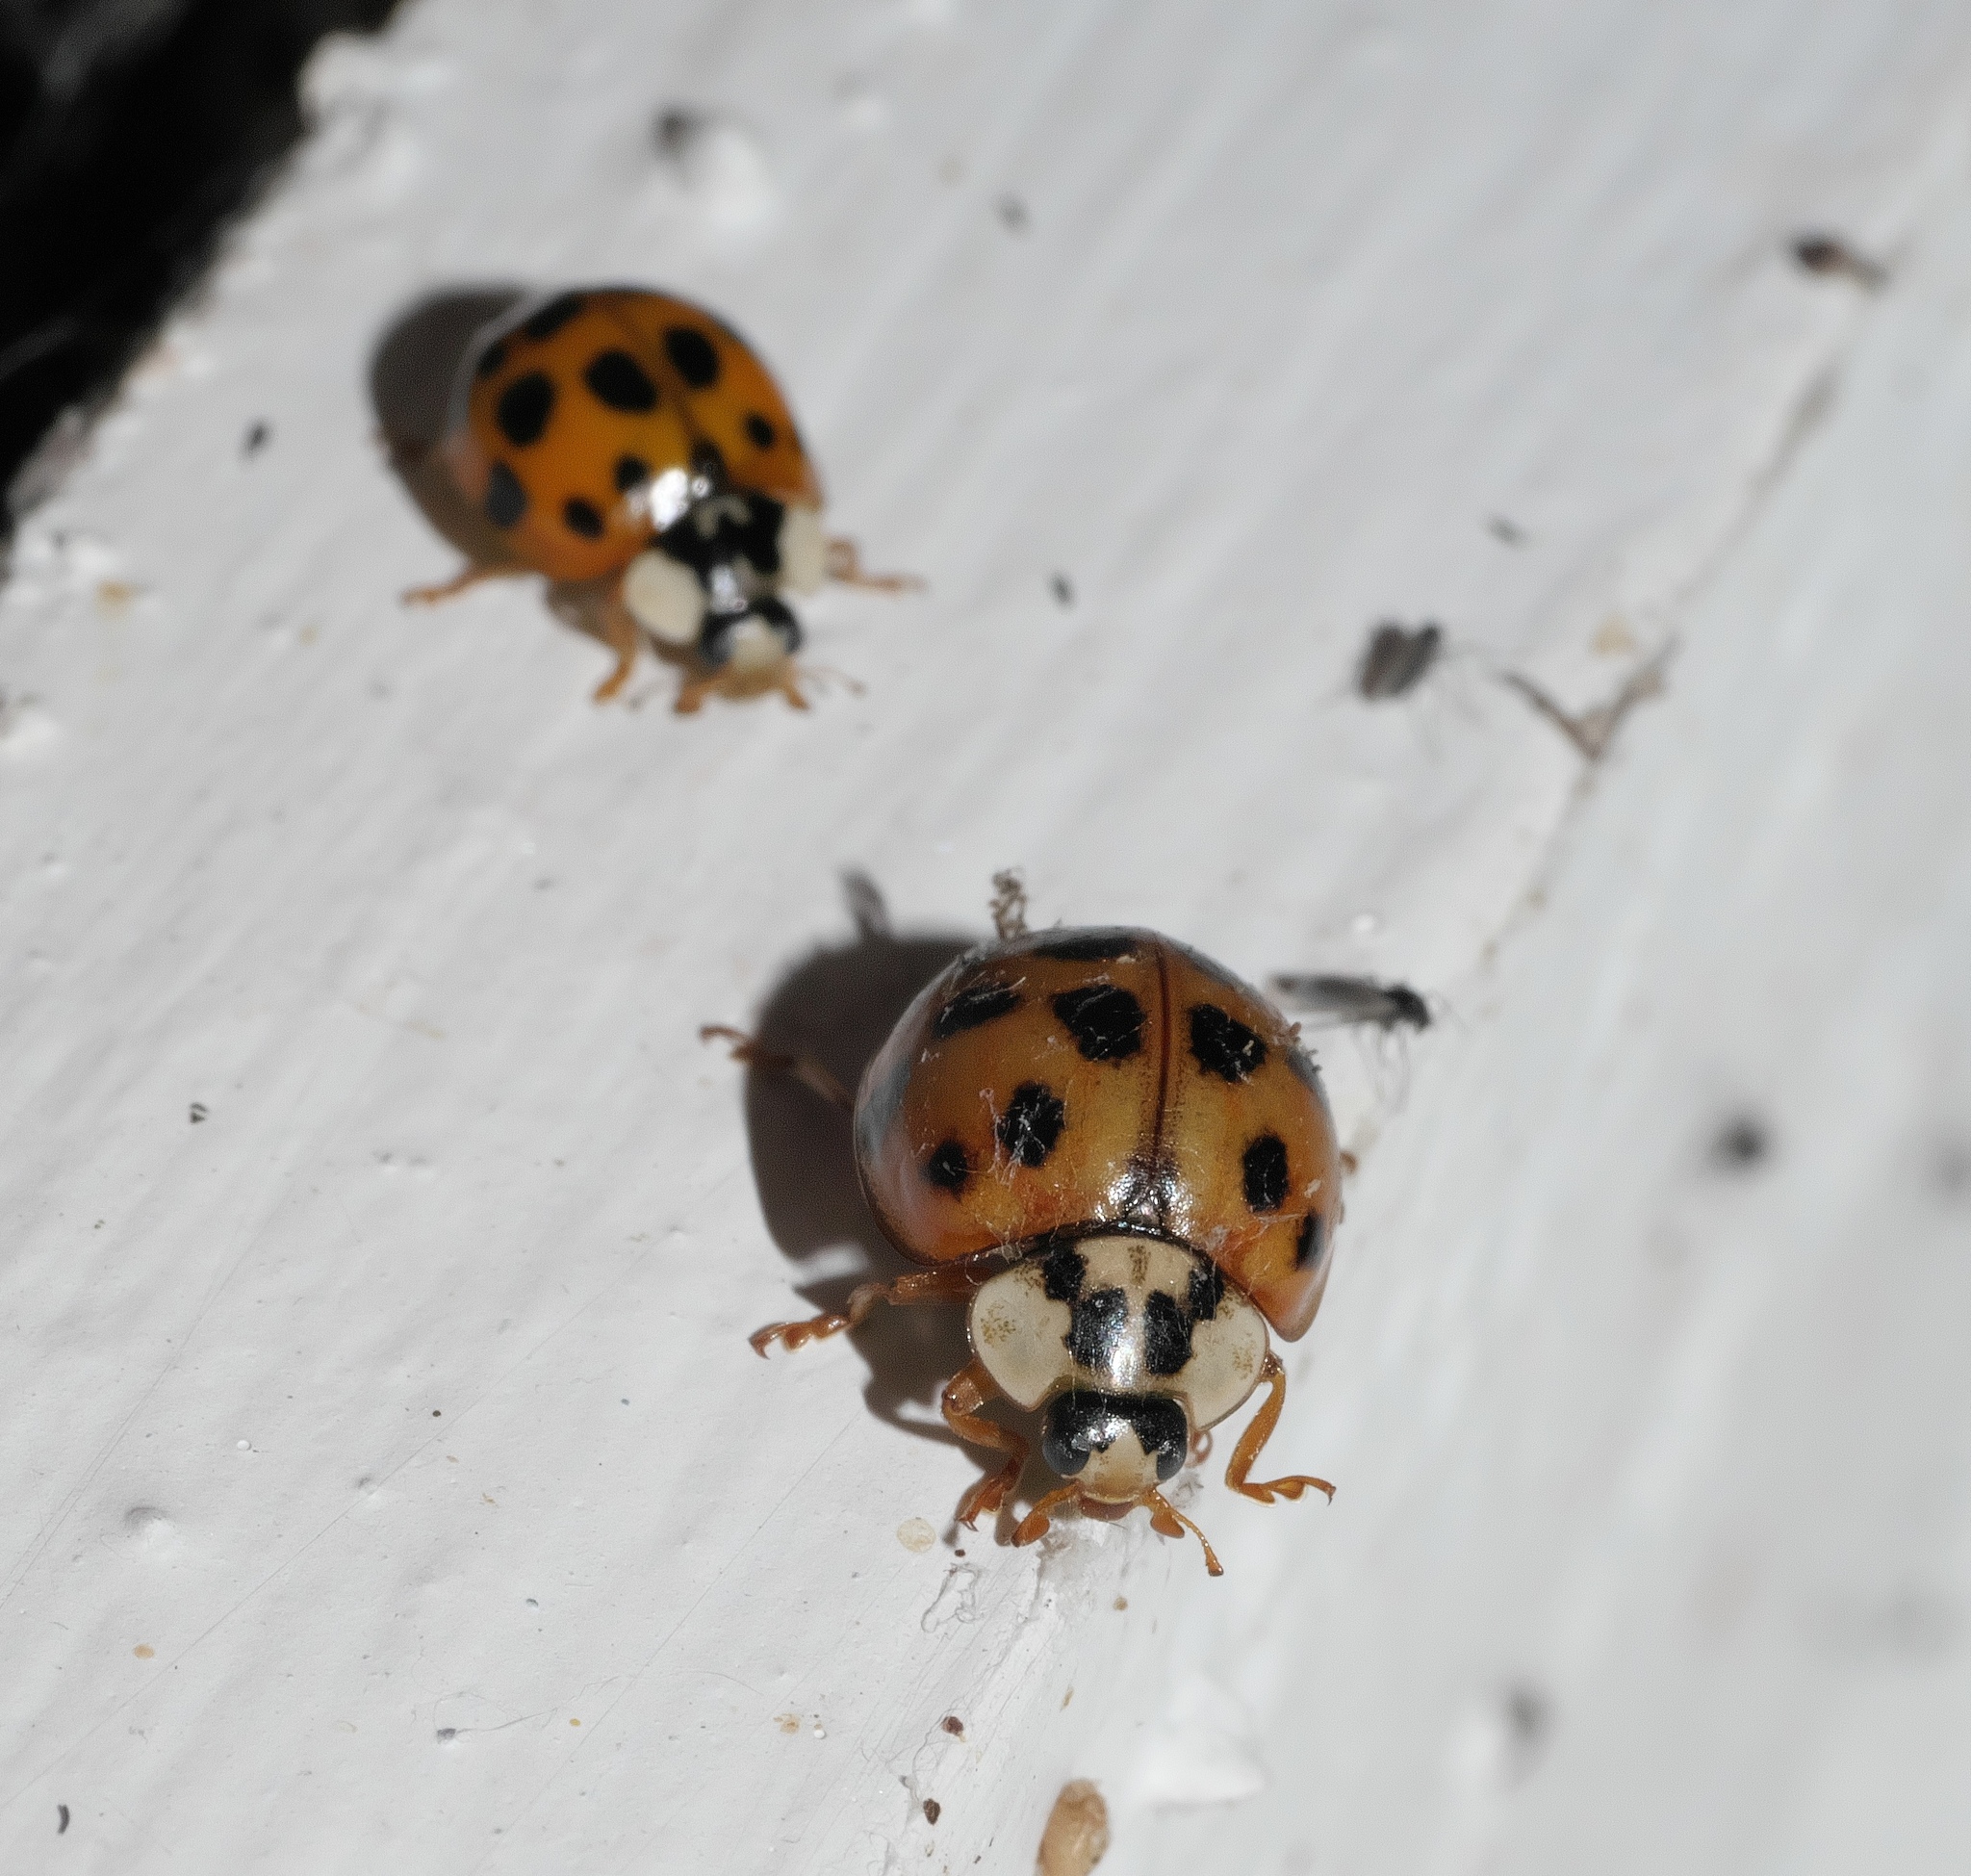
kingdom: Animalia
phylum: Arthropoda
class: Insecta
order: Coleoptera
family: Coccinellidae
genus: Harmonia
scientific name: Harmonia axyridis
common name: Harlequin ladybird
